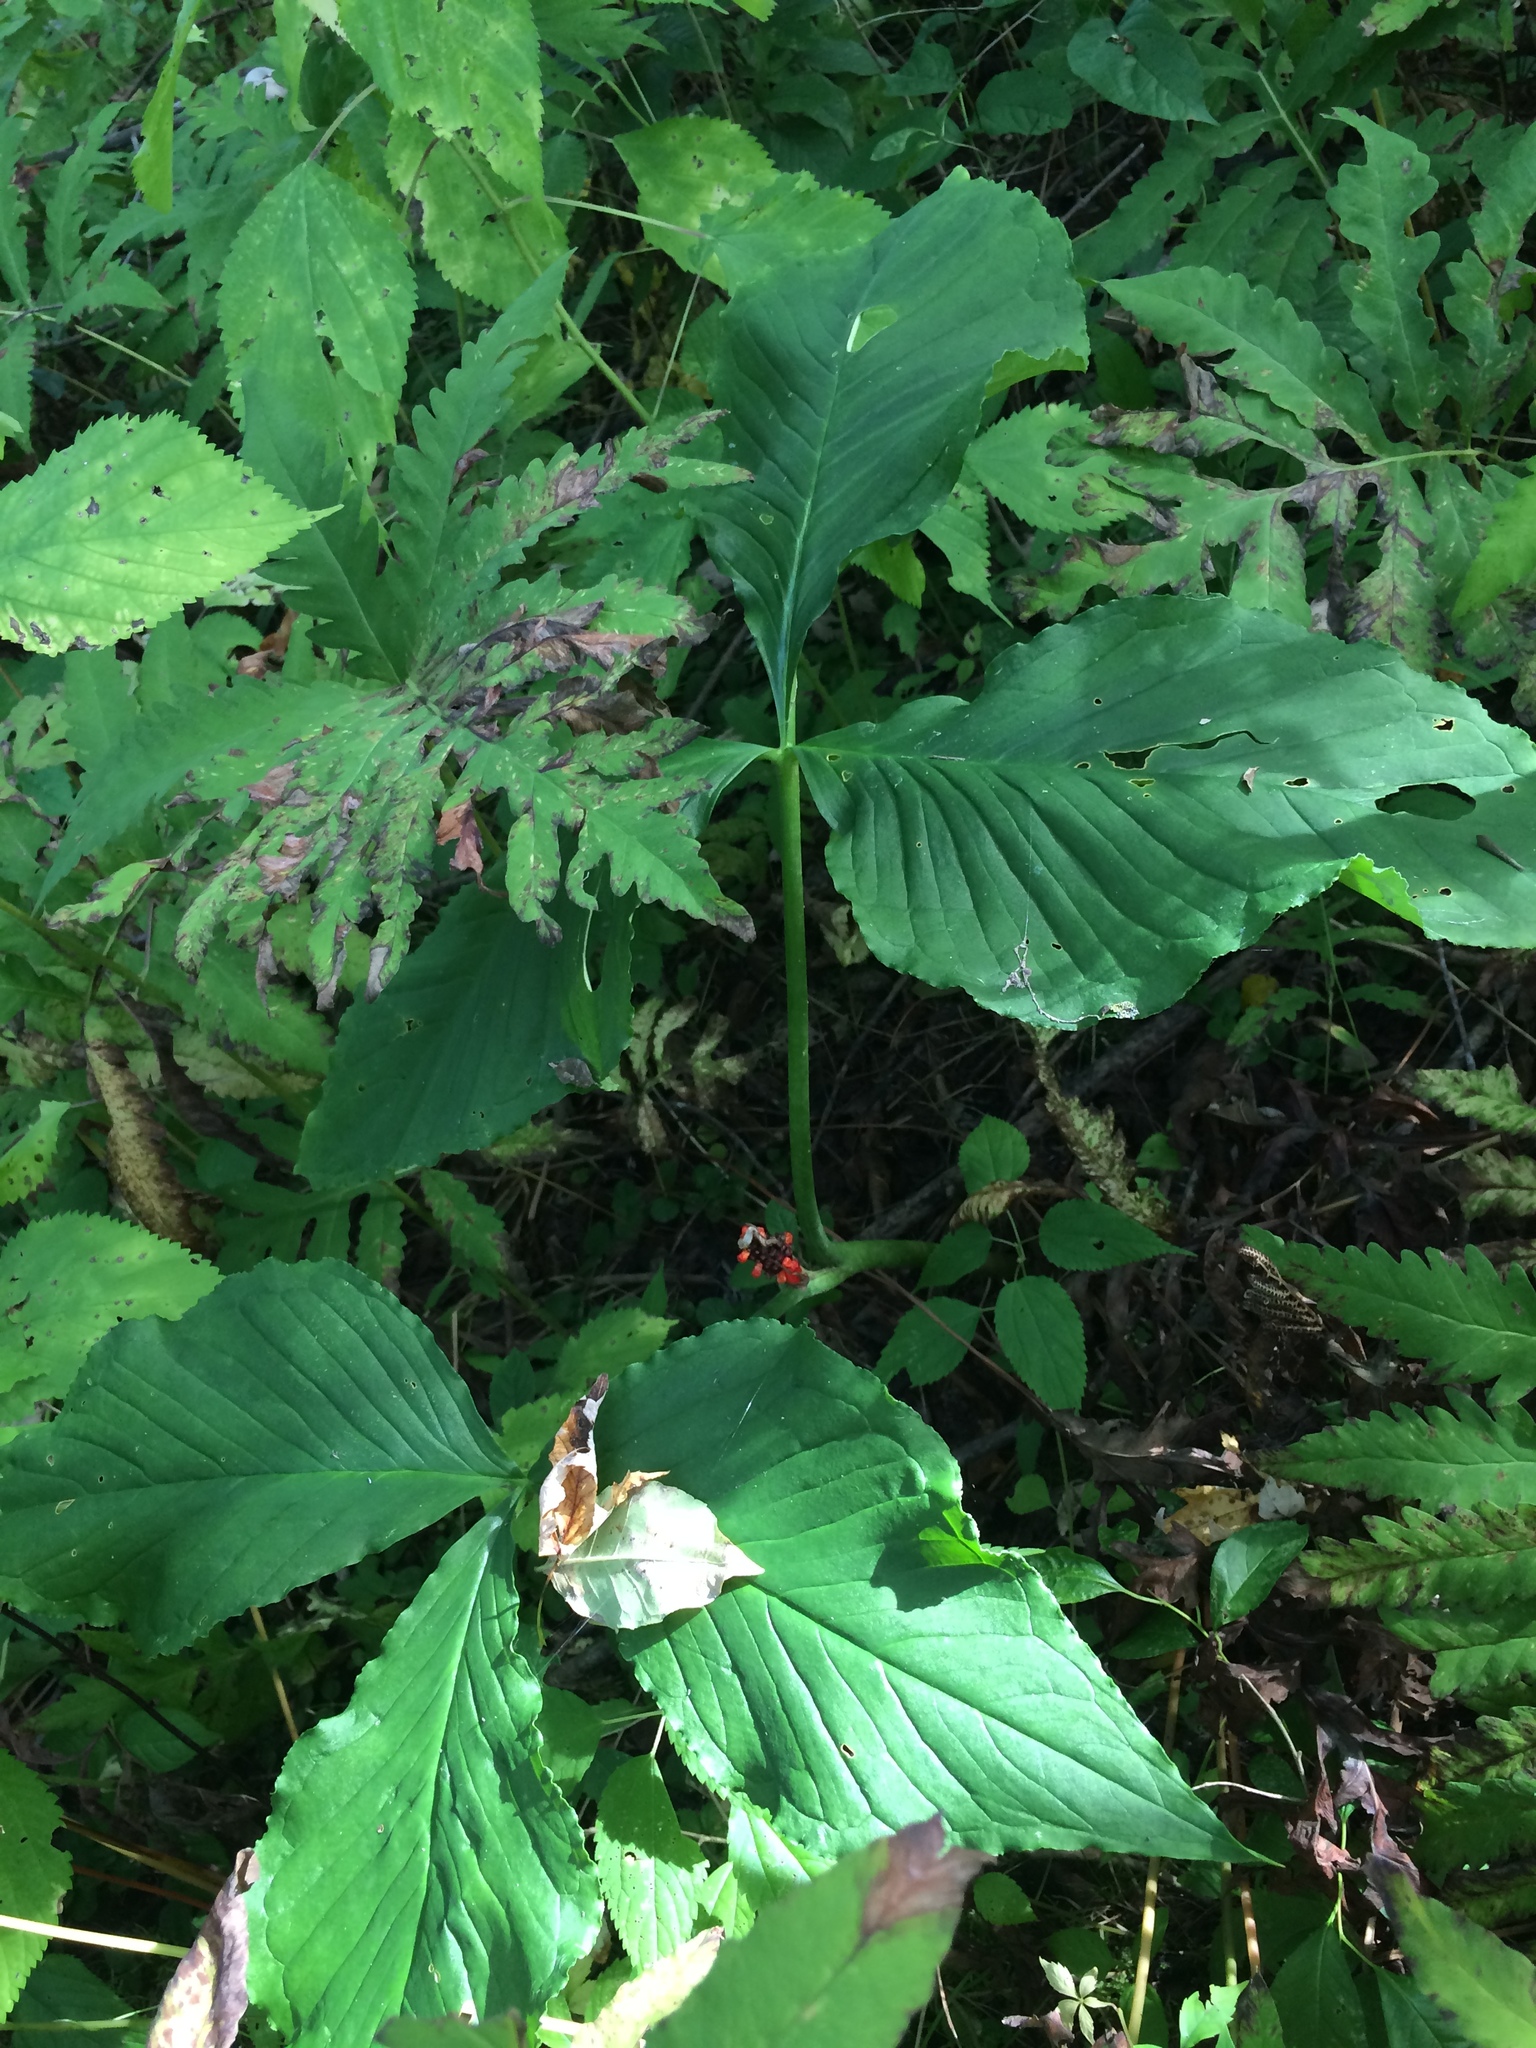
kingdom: Plantae
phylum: Tracheophyta
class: Liliopsida
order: Alismatales
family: Araceae
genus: Arisaema
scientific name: Arisaema triphyllum
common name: Jack-in-the-pulpit
